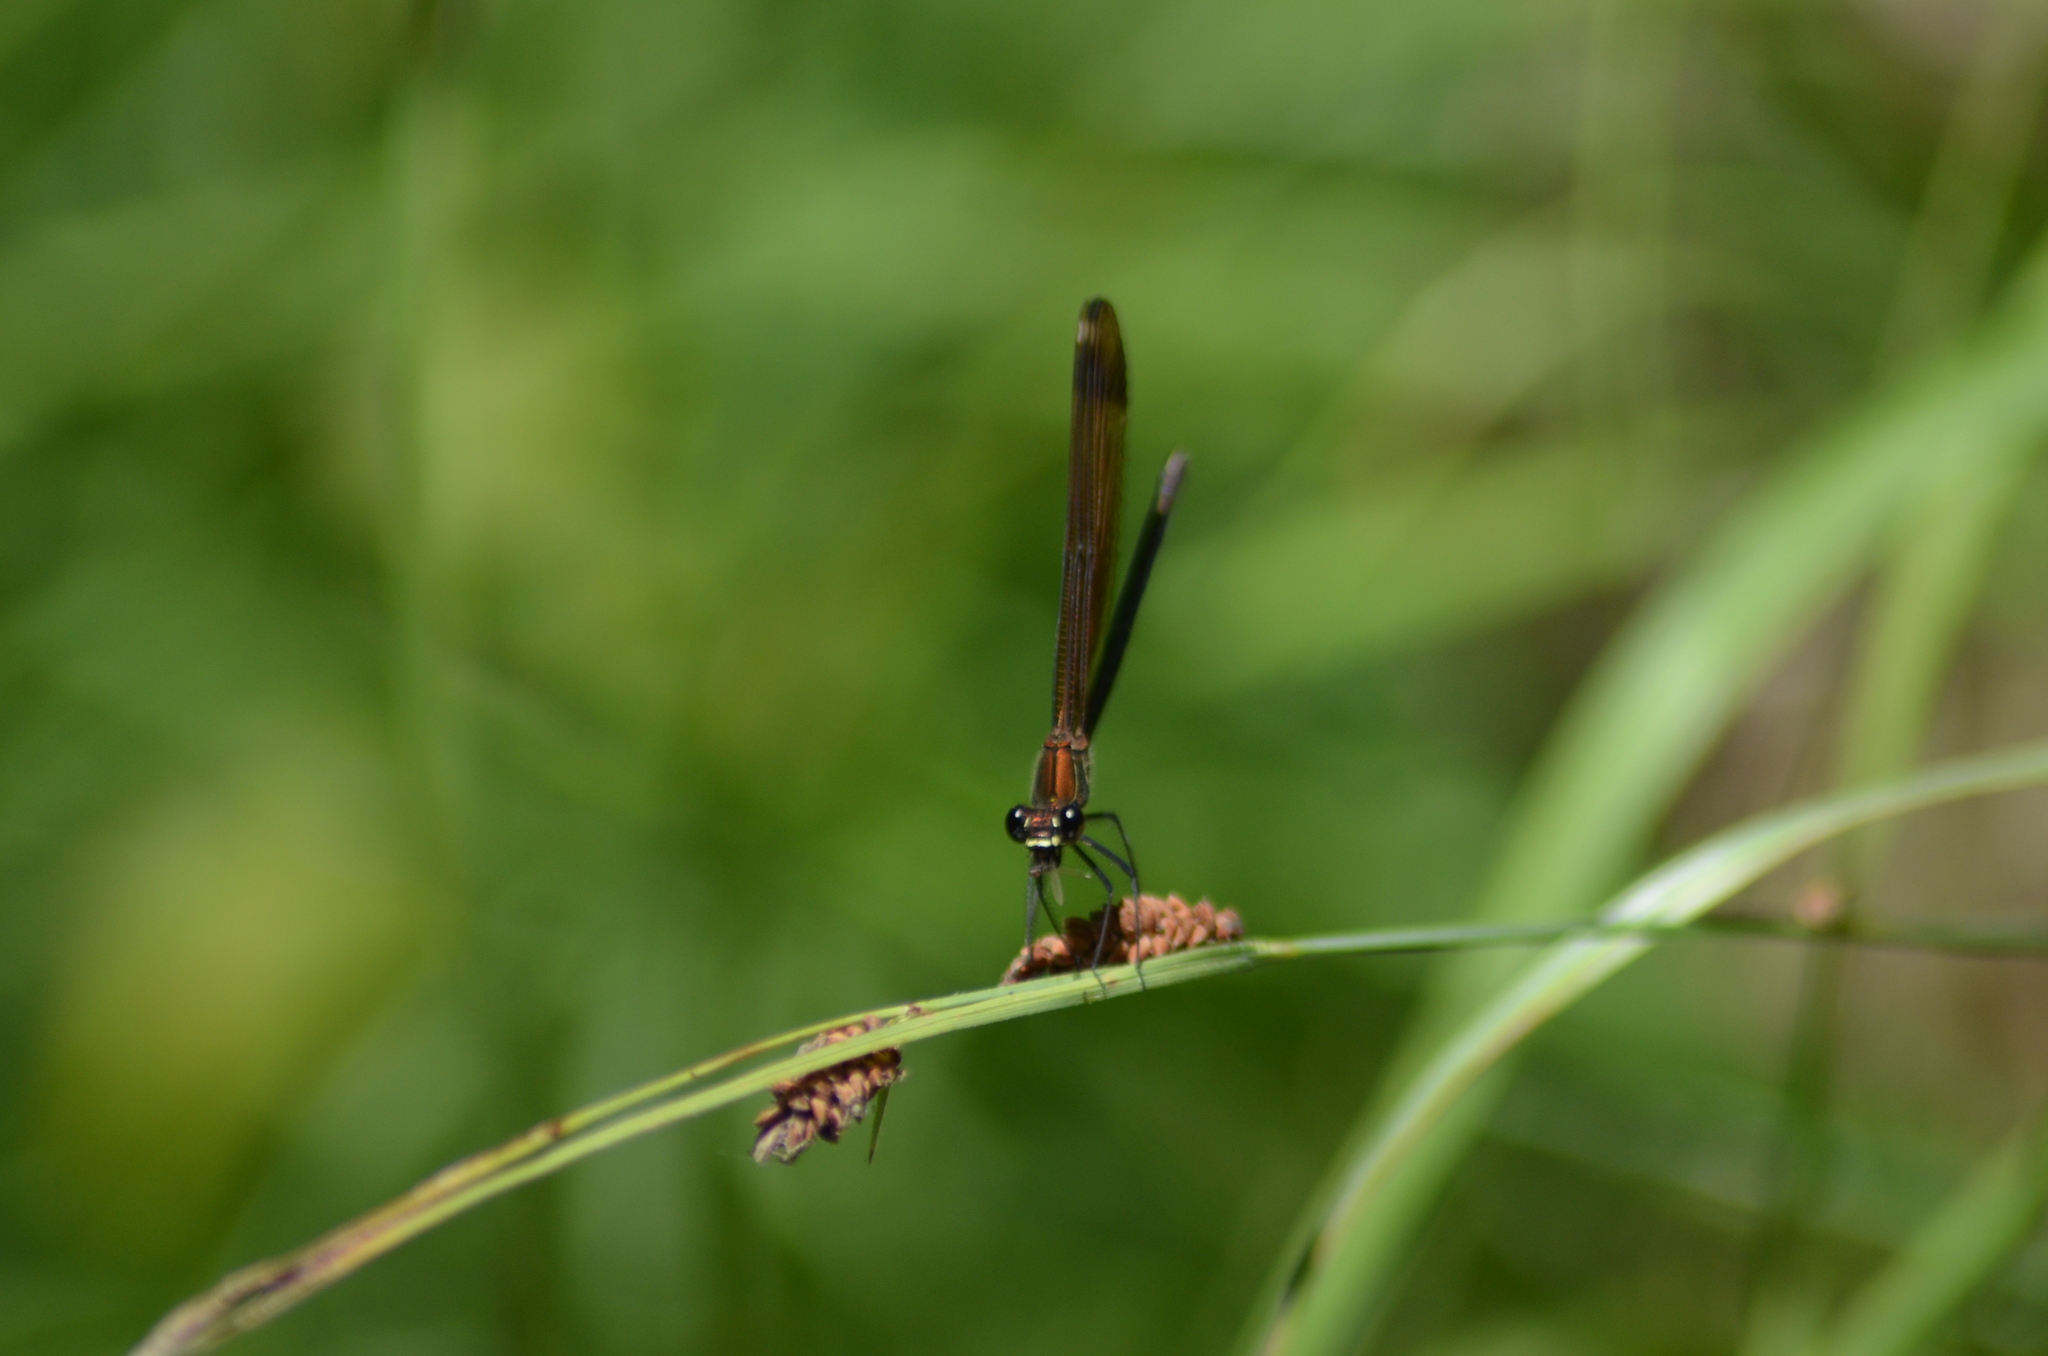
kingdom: Animalia
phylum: Arthropoda
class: Insecta
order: Odonata
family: Calopterygidae
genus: Calopteryx
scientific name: Calopteryx haemorrhoidalis
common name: Copper demoiselle
